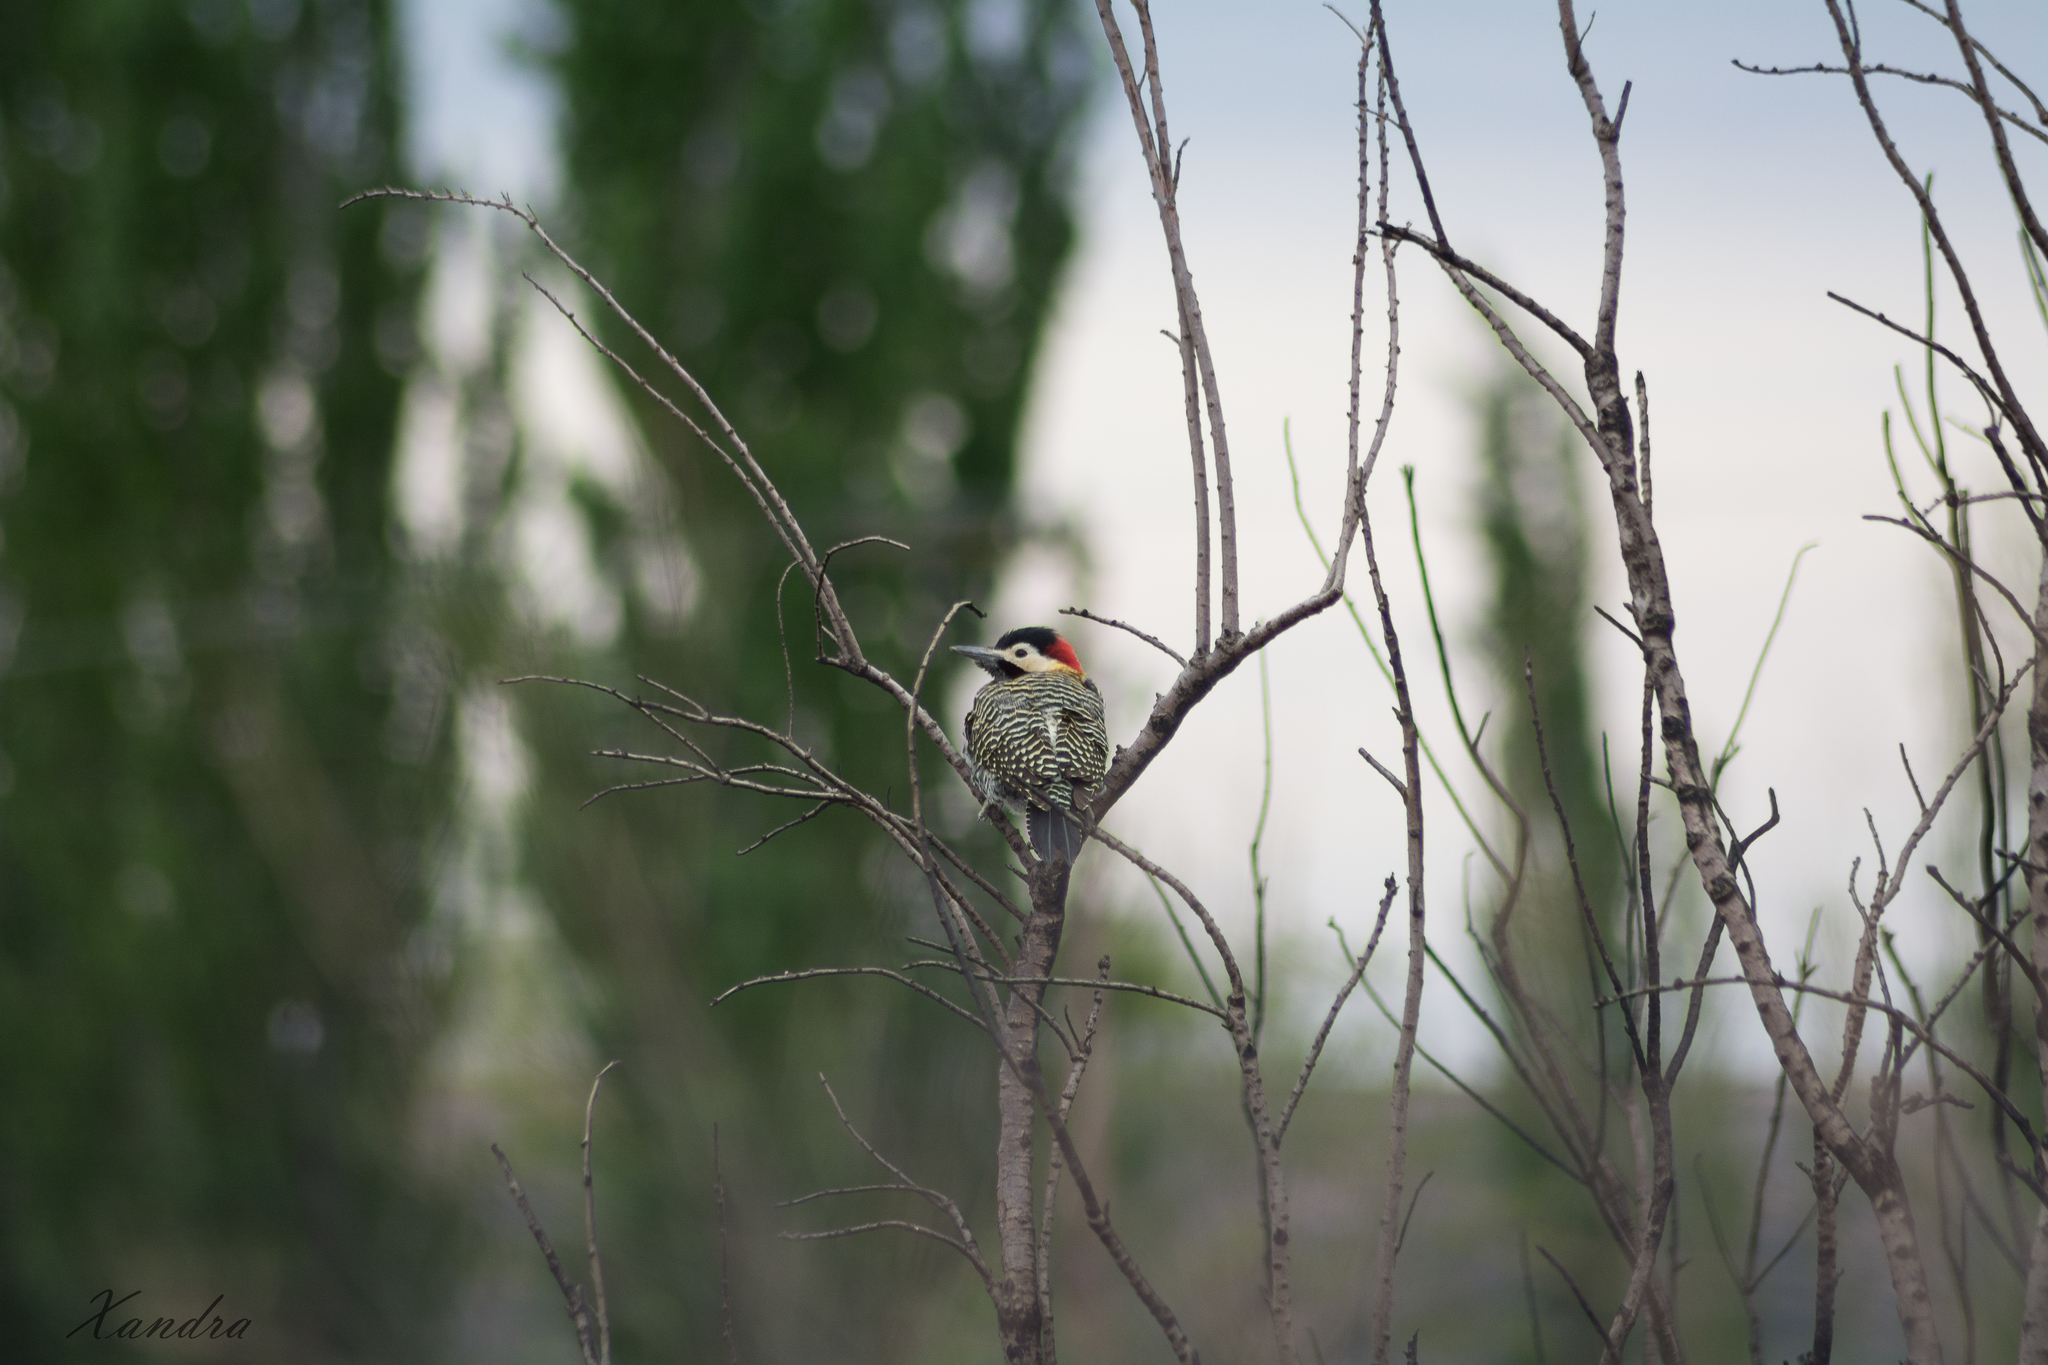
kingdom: Animalia
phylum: Chordata
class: Aves
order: Piciformes
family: Picidae
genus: Colaptes
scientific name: Colaptes melanochloros
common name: Green-barred woodpecker
